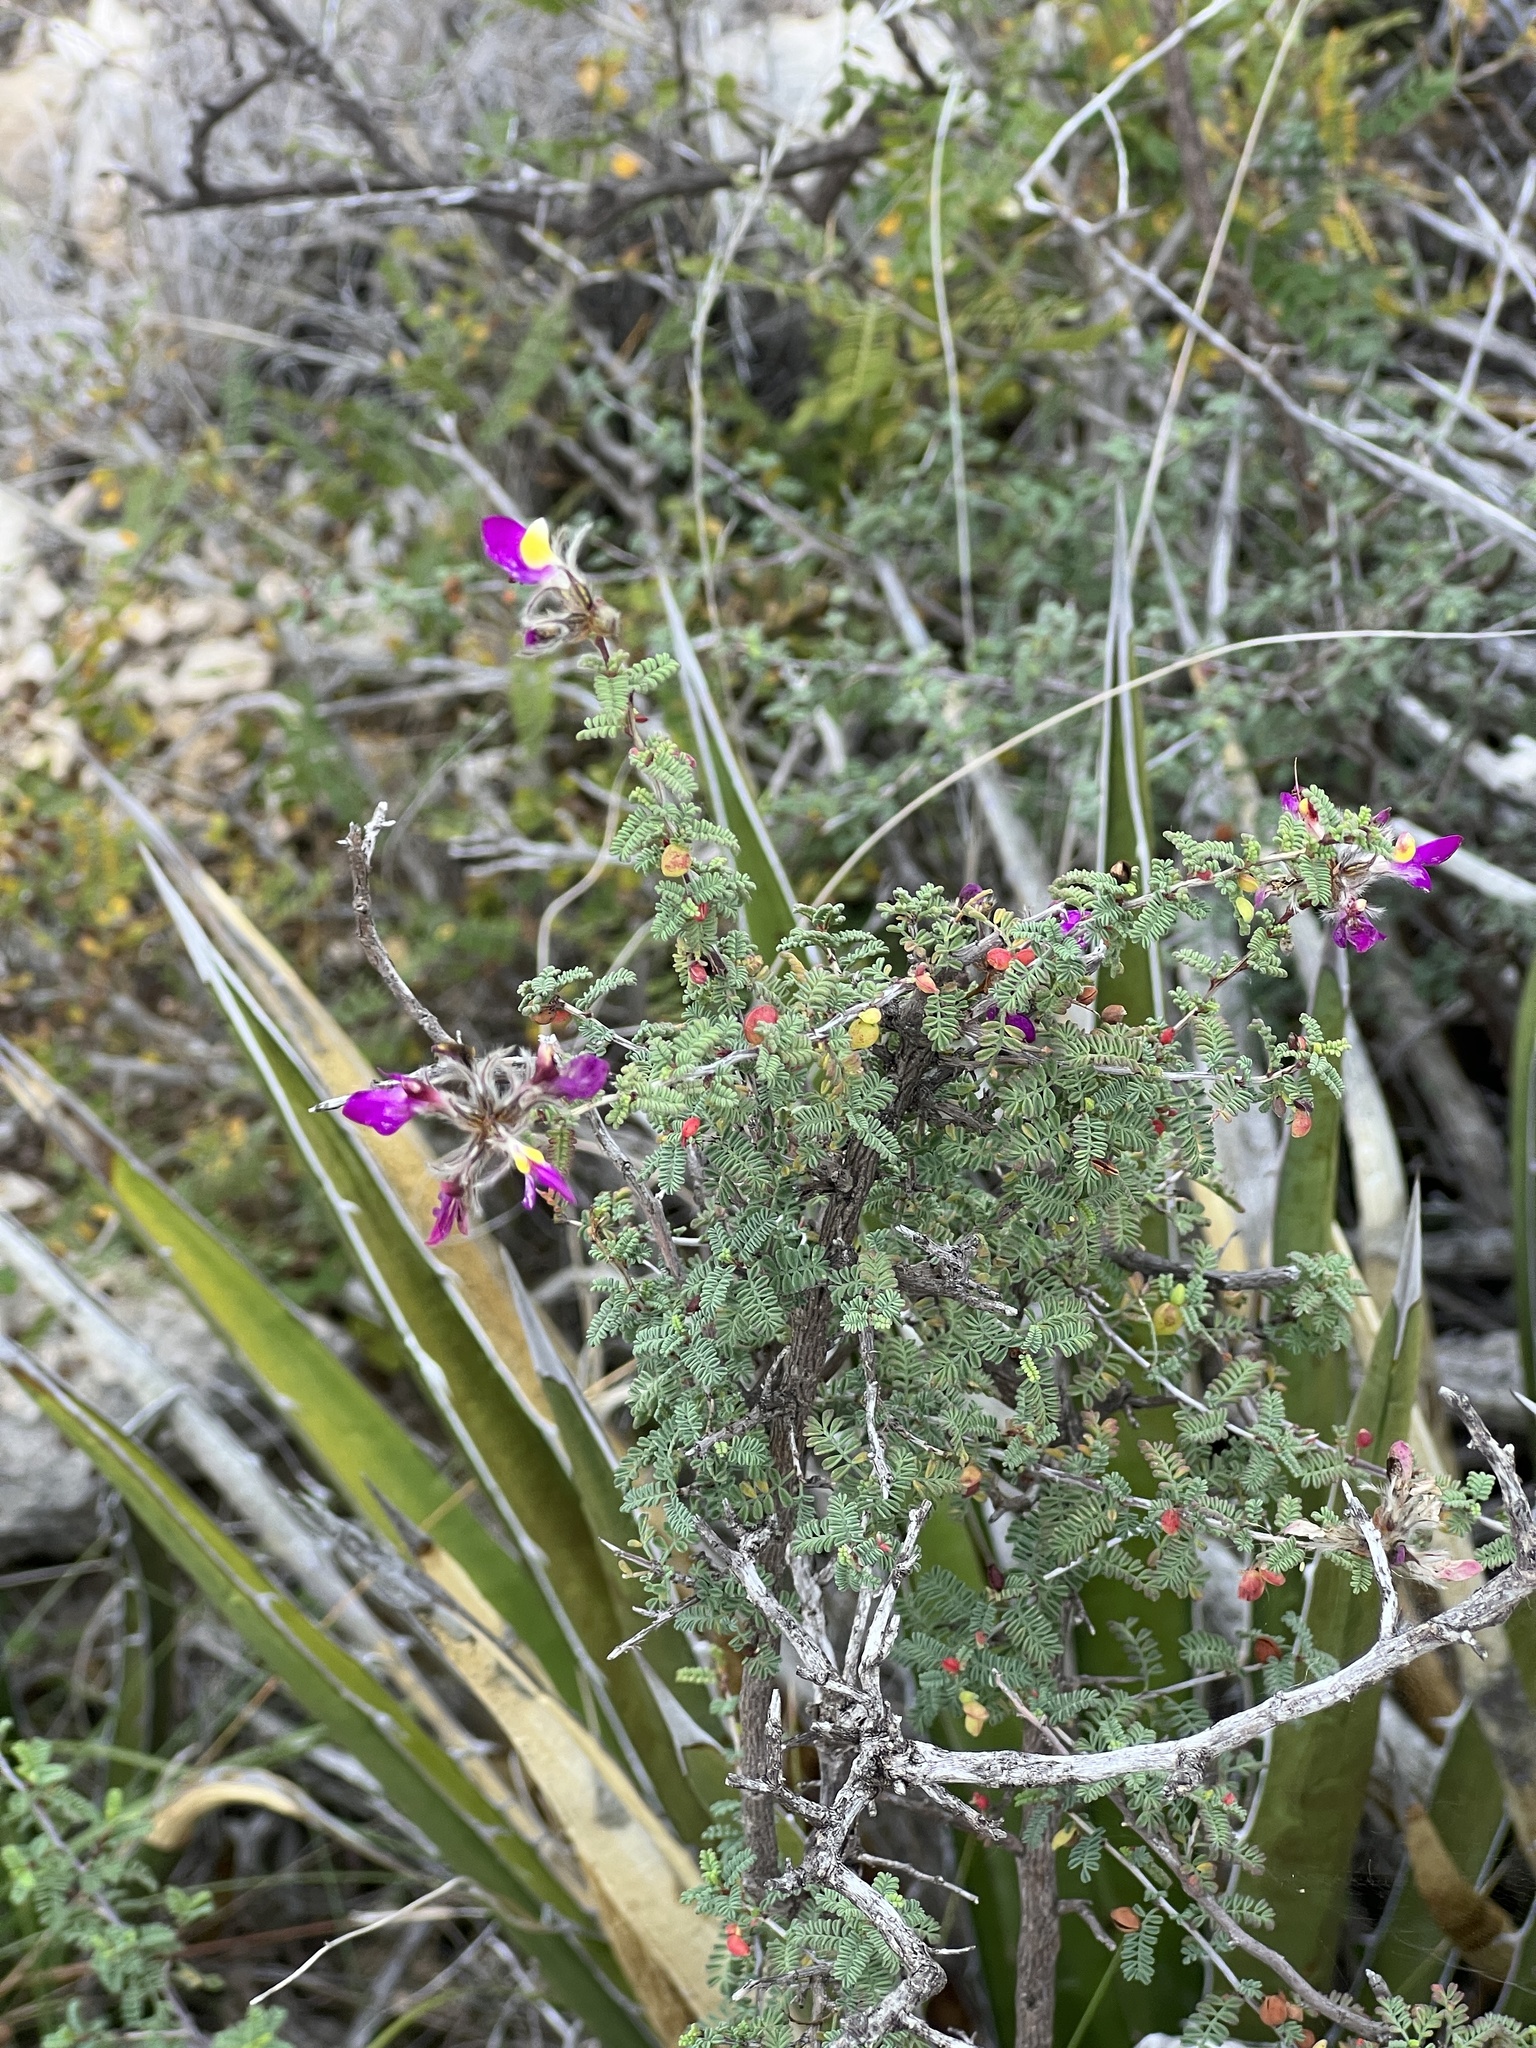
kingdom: Plantae
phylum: Tracheophyta
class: Magnoliopsida
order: Fabales
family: Fabaceae
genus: Dalea
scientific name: Dalea formosa
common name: Feather-plume dalea
